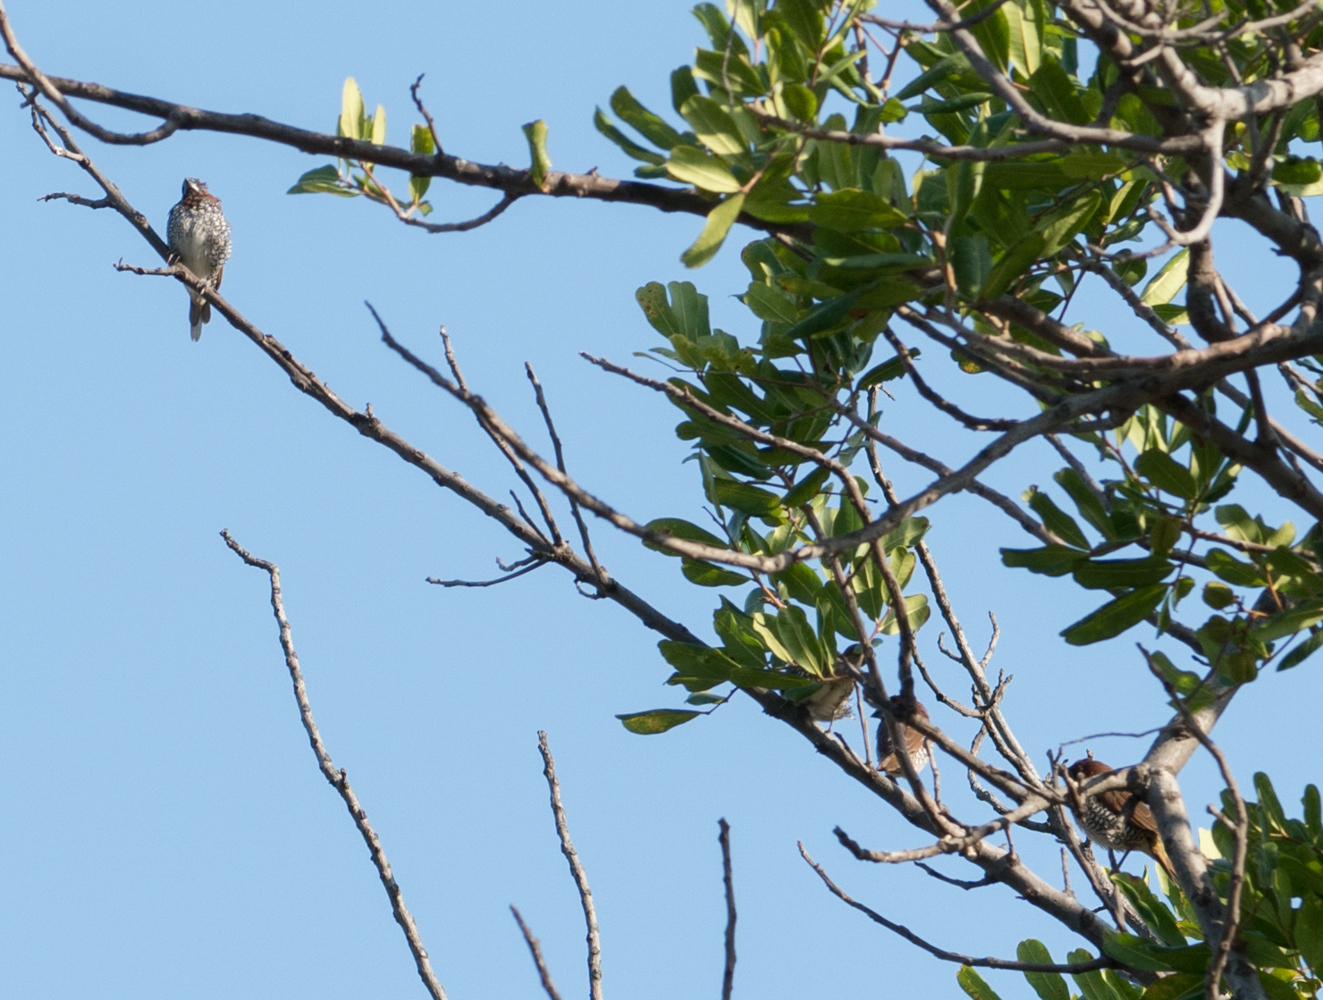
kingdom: Animalia
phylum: Chordata
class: Aves
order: Passeriformes
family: Estrildidae
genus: Lonchura
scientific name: Lonchura punctulata
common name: Scaly-breasted munia
